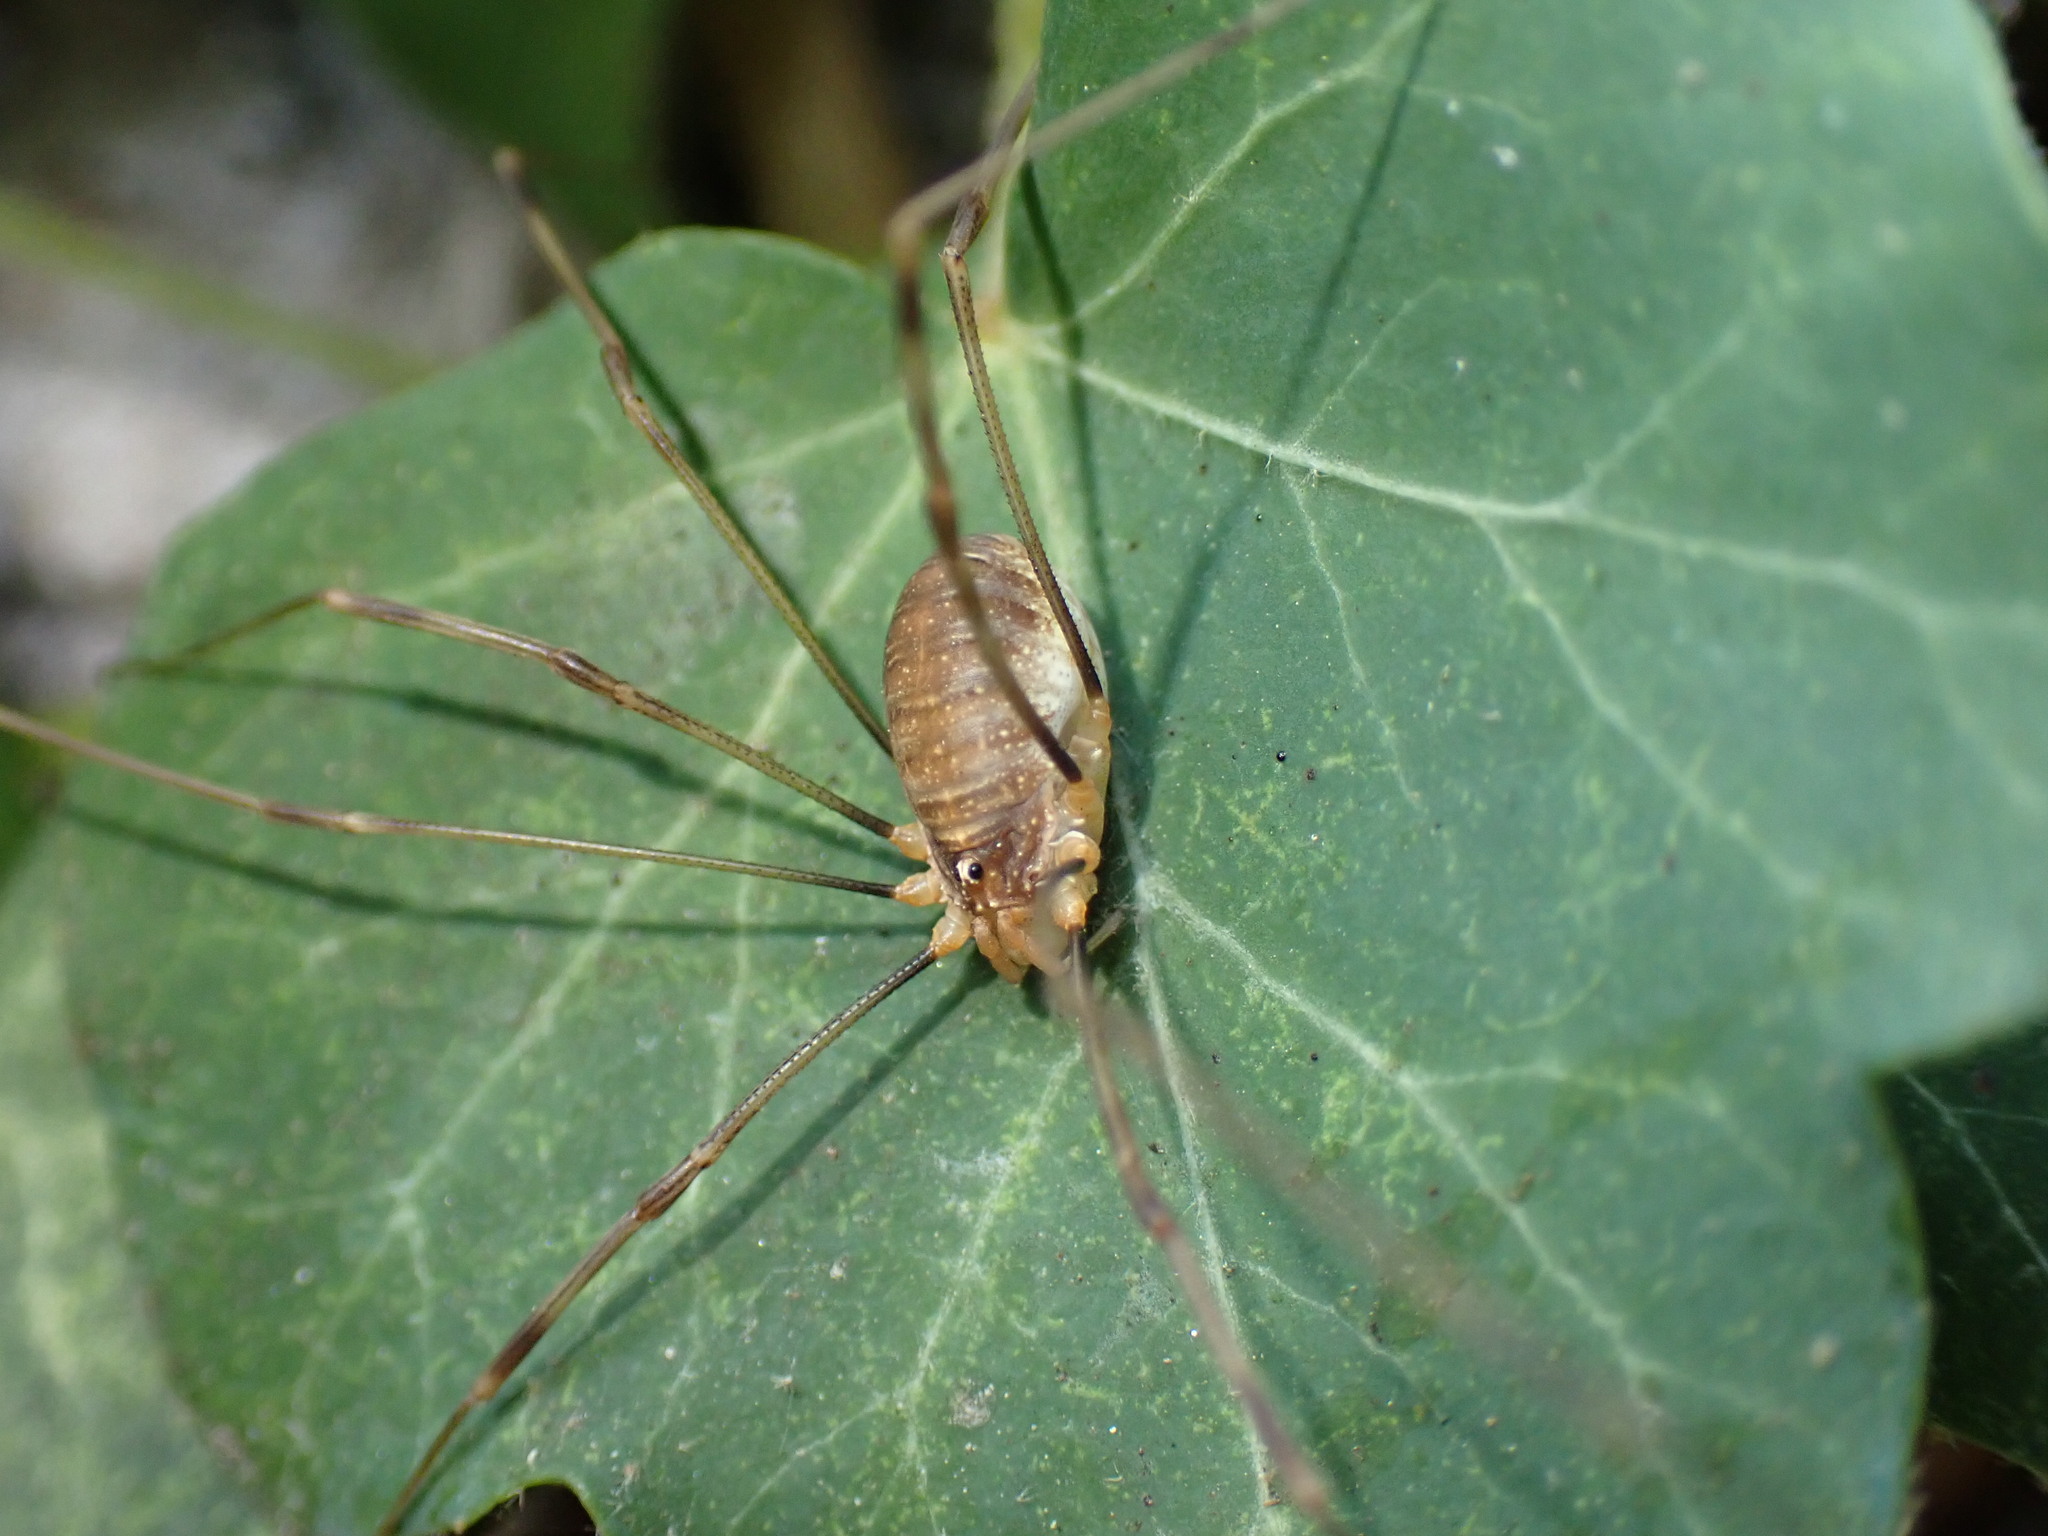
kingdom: Animalia
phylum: Arthropoda
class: Arachnida
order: Opiliones
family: Phalangiidae
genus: Opilio
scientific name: Opilio canestrinii
